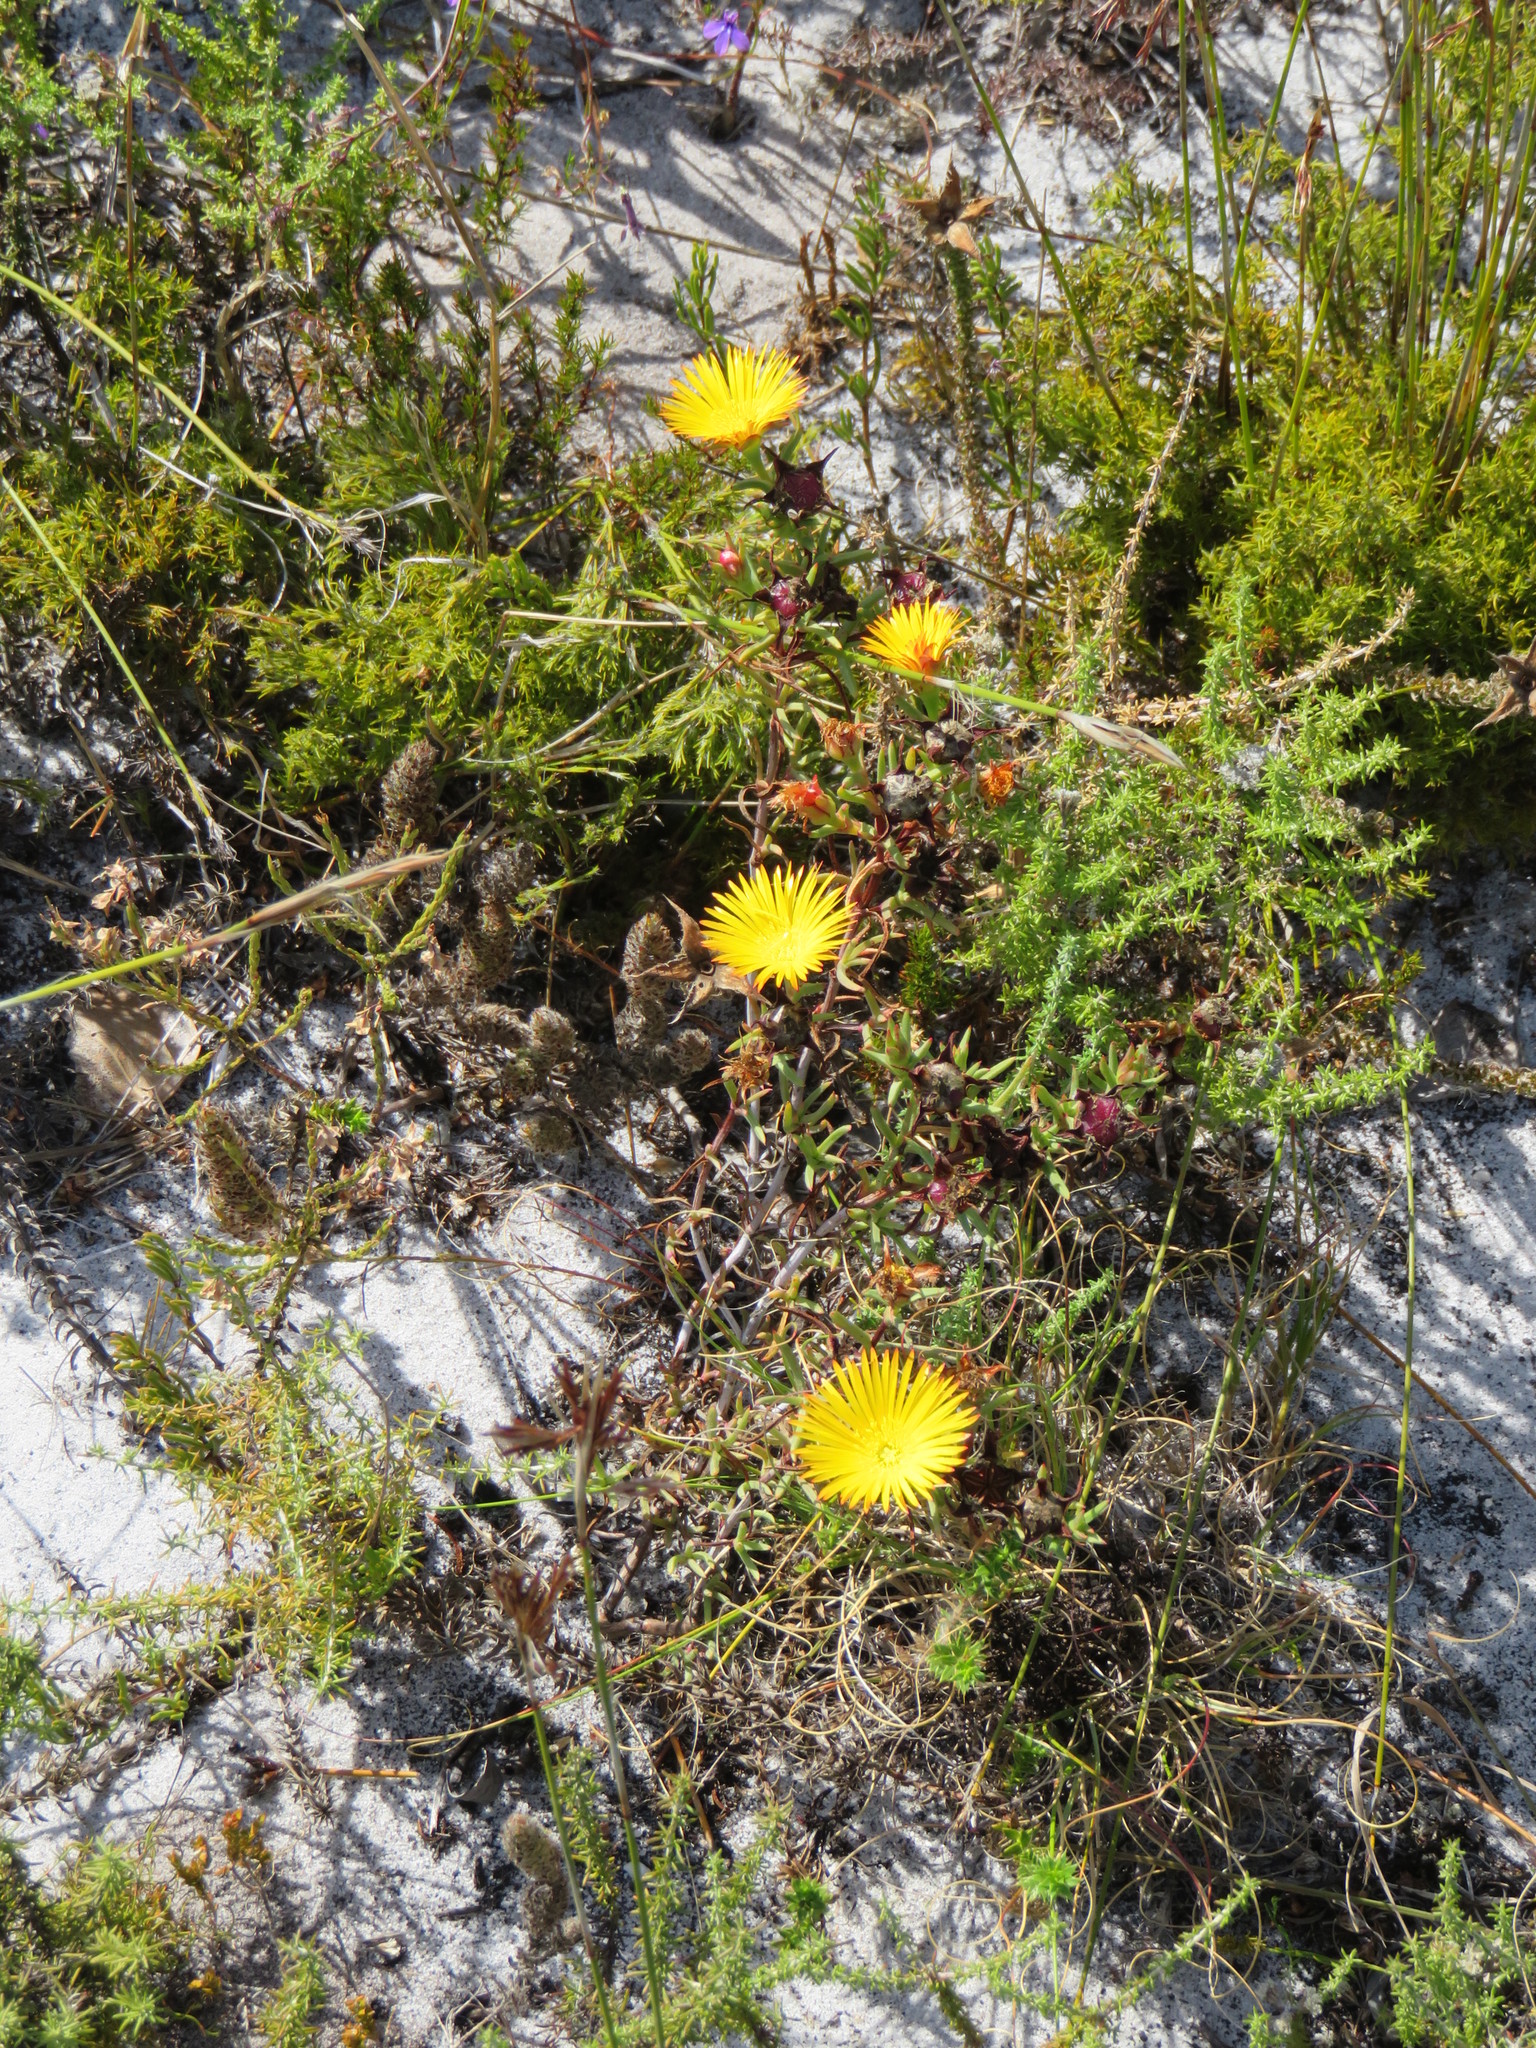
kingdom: Plantae
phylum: Tracheophyta
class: Magnoliopsida
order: Caryophyllales
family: Aizoaceae
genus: Lampranthus
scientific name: Lampranthus bicolor
